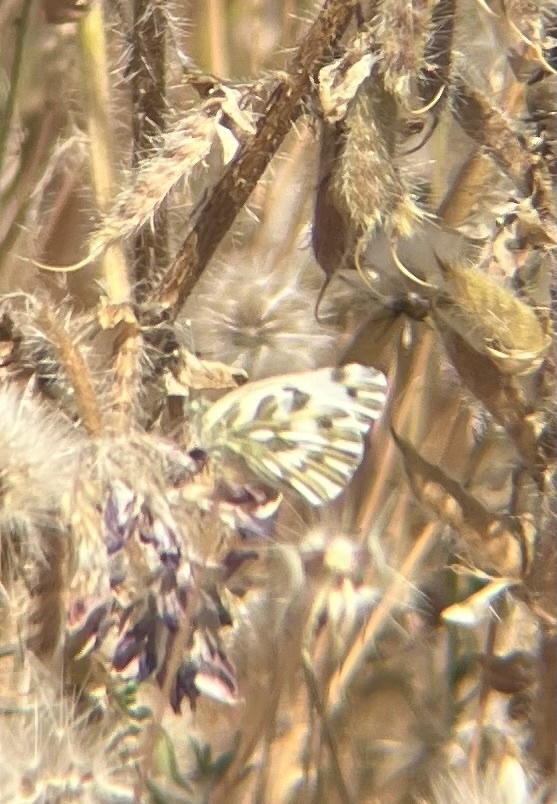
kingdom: Animalia
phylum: Arthropoda
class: Insecta
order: Lepidoptera
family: Pieridae
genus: Pontia
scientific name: Pontia beckerii
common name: Becker's white
